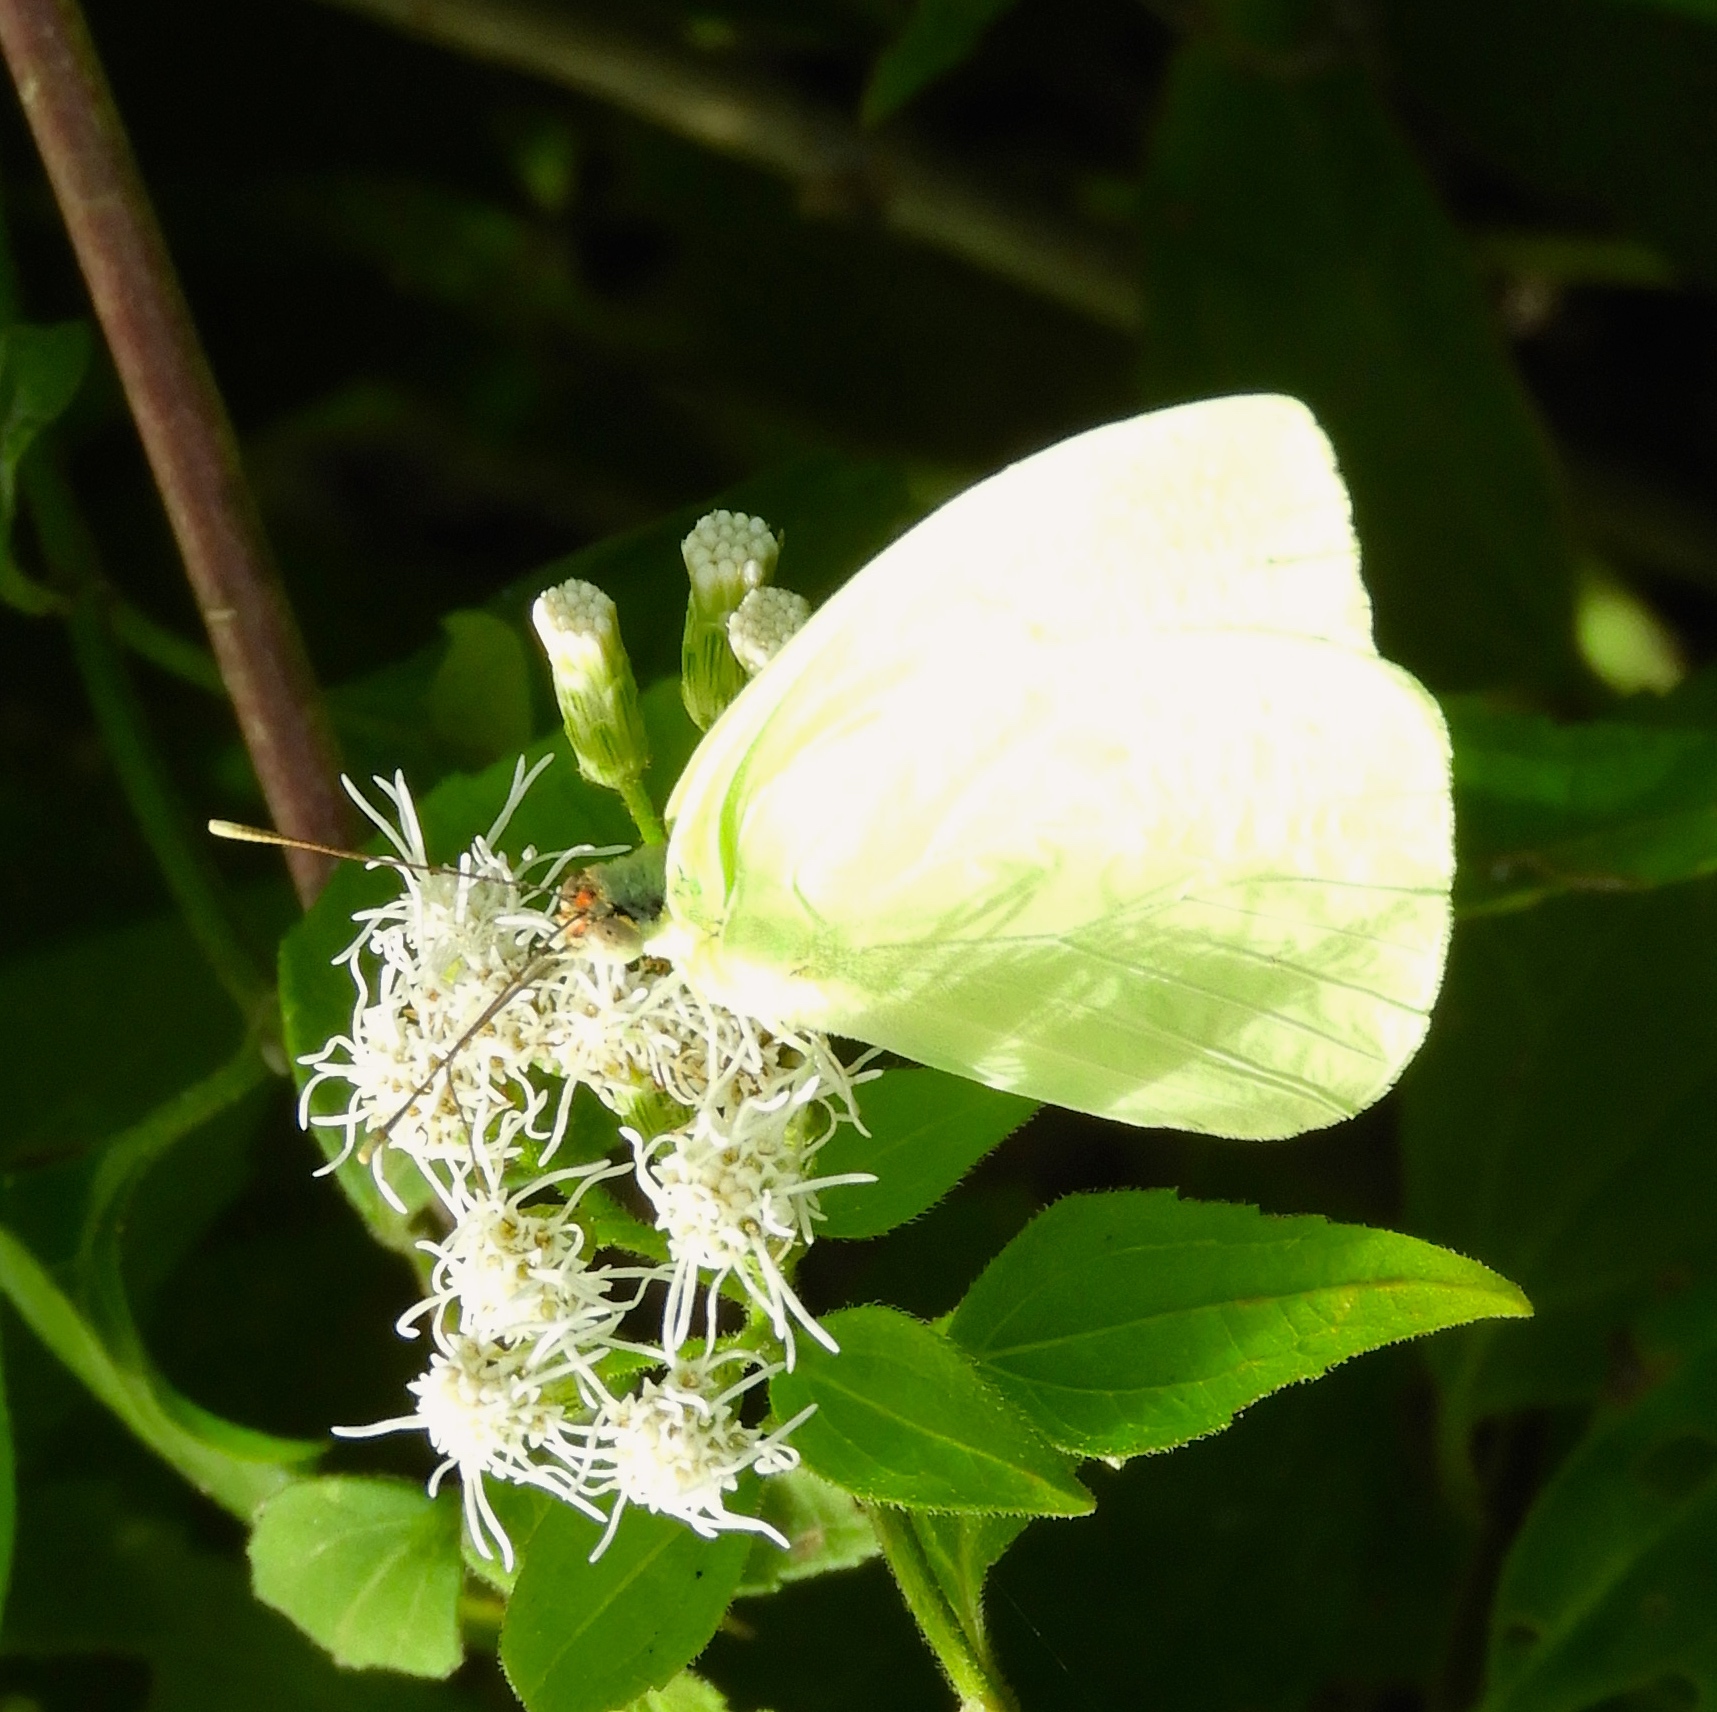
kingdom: Animalia
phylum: Arthropoda
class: Insecta
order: Lepidoptera
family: Pieridae
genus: Kricogonia
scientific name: Kricogonia lyside
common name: Guayacan sulphur,
